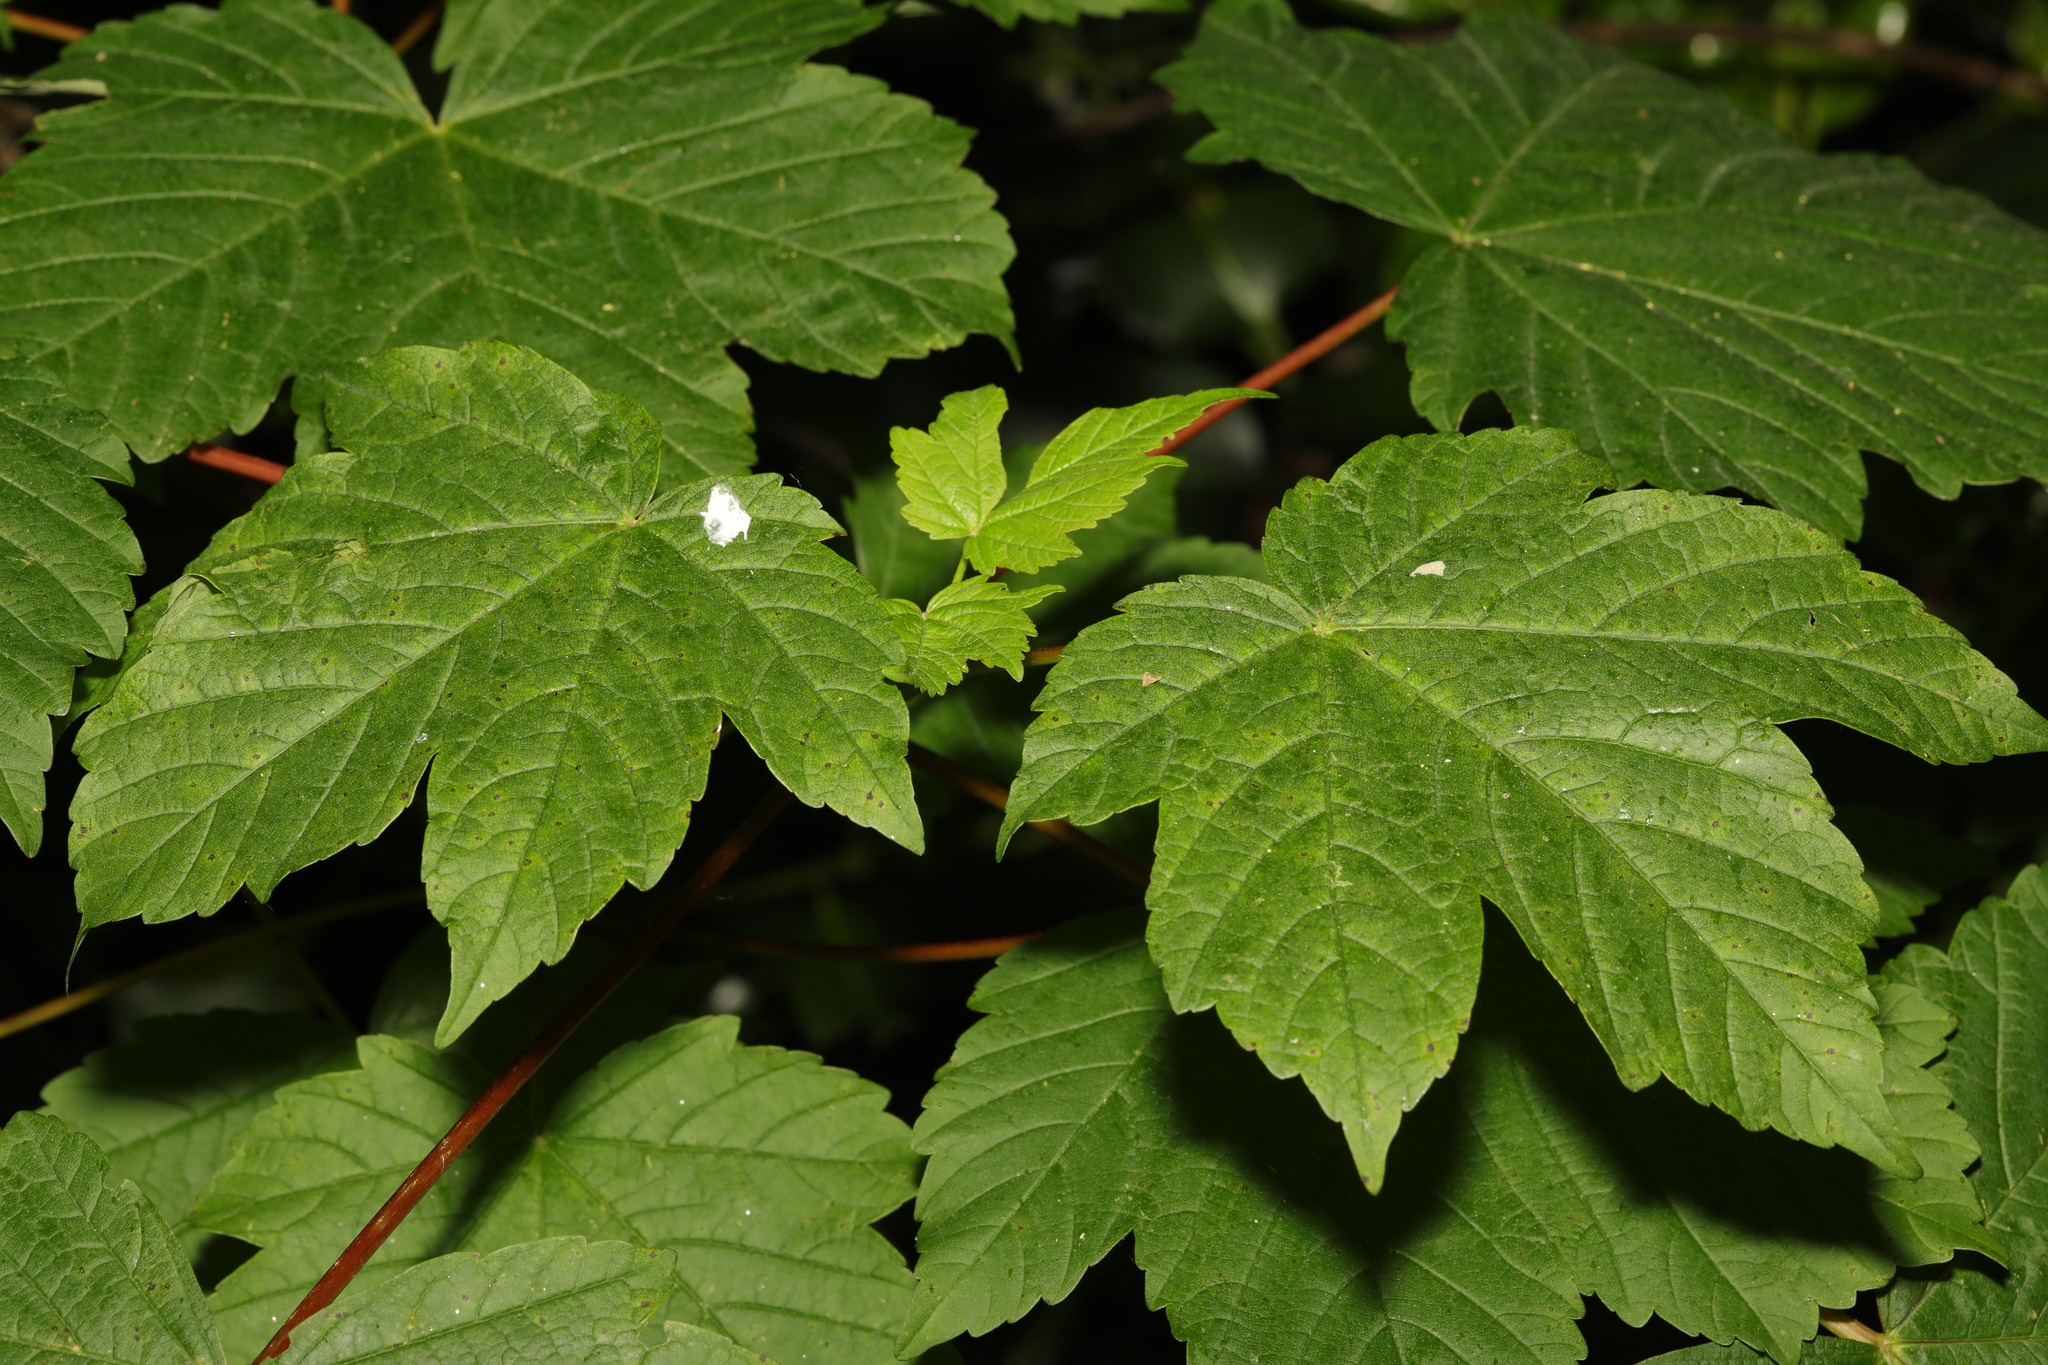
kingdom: Plantae
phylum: Tracheophyta
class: Magnoliopsida
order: Sapindales
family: Sapindaceae
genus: Acer
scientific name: Acer pseudoplatanus
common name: Sycamore
